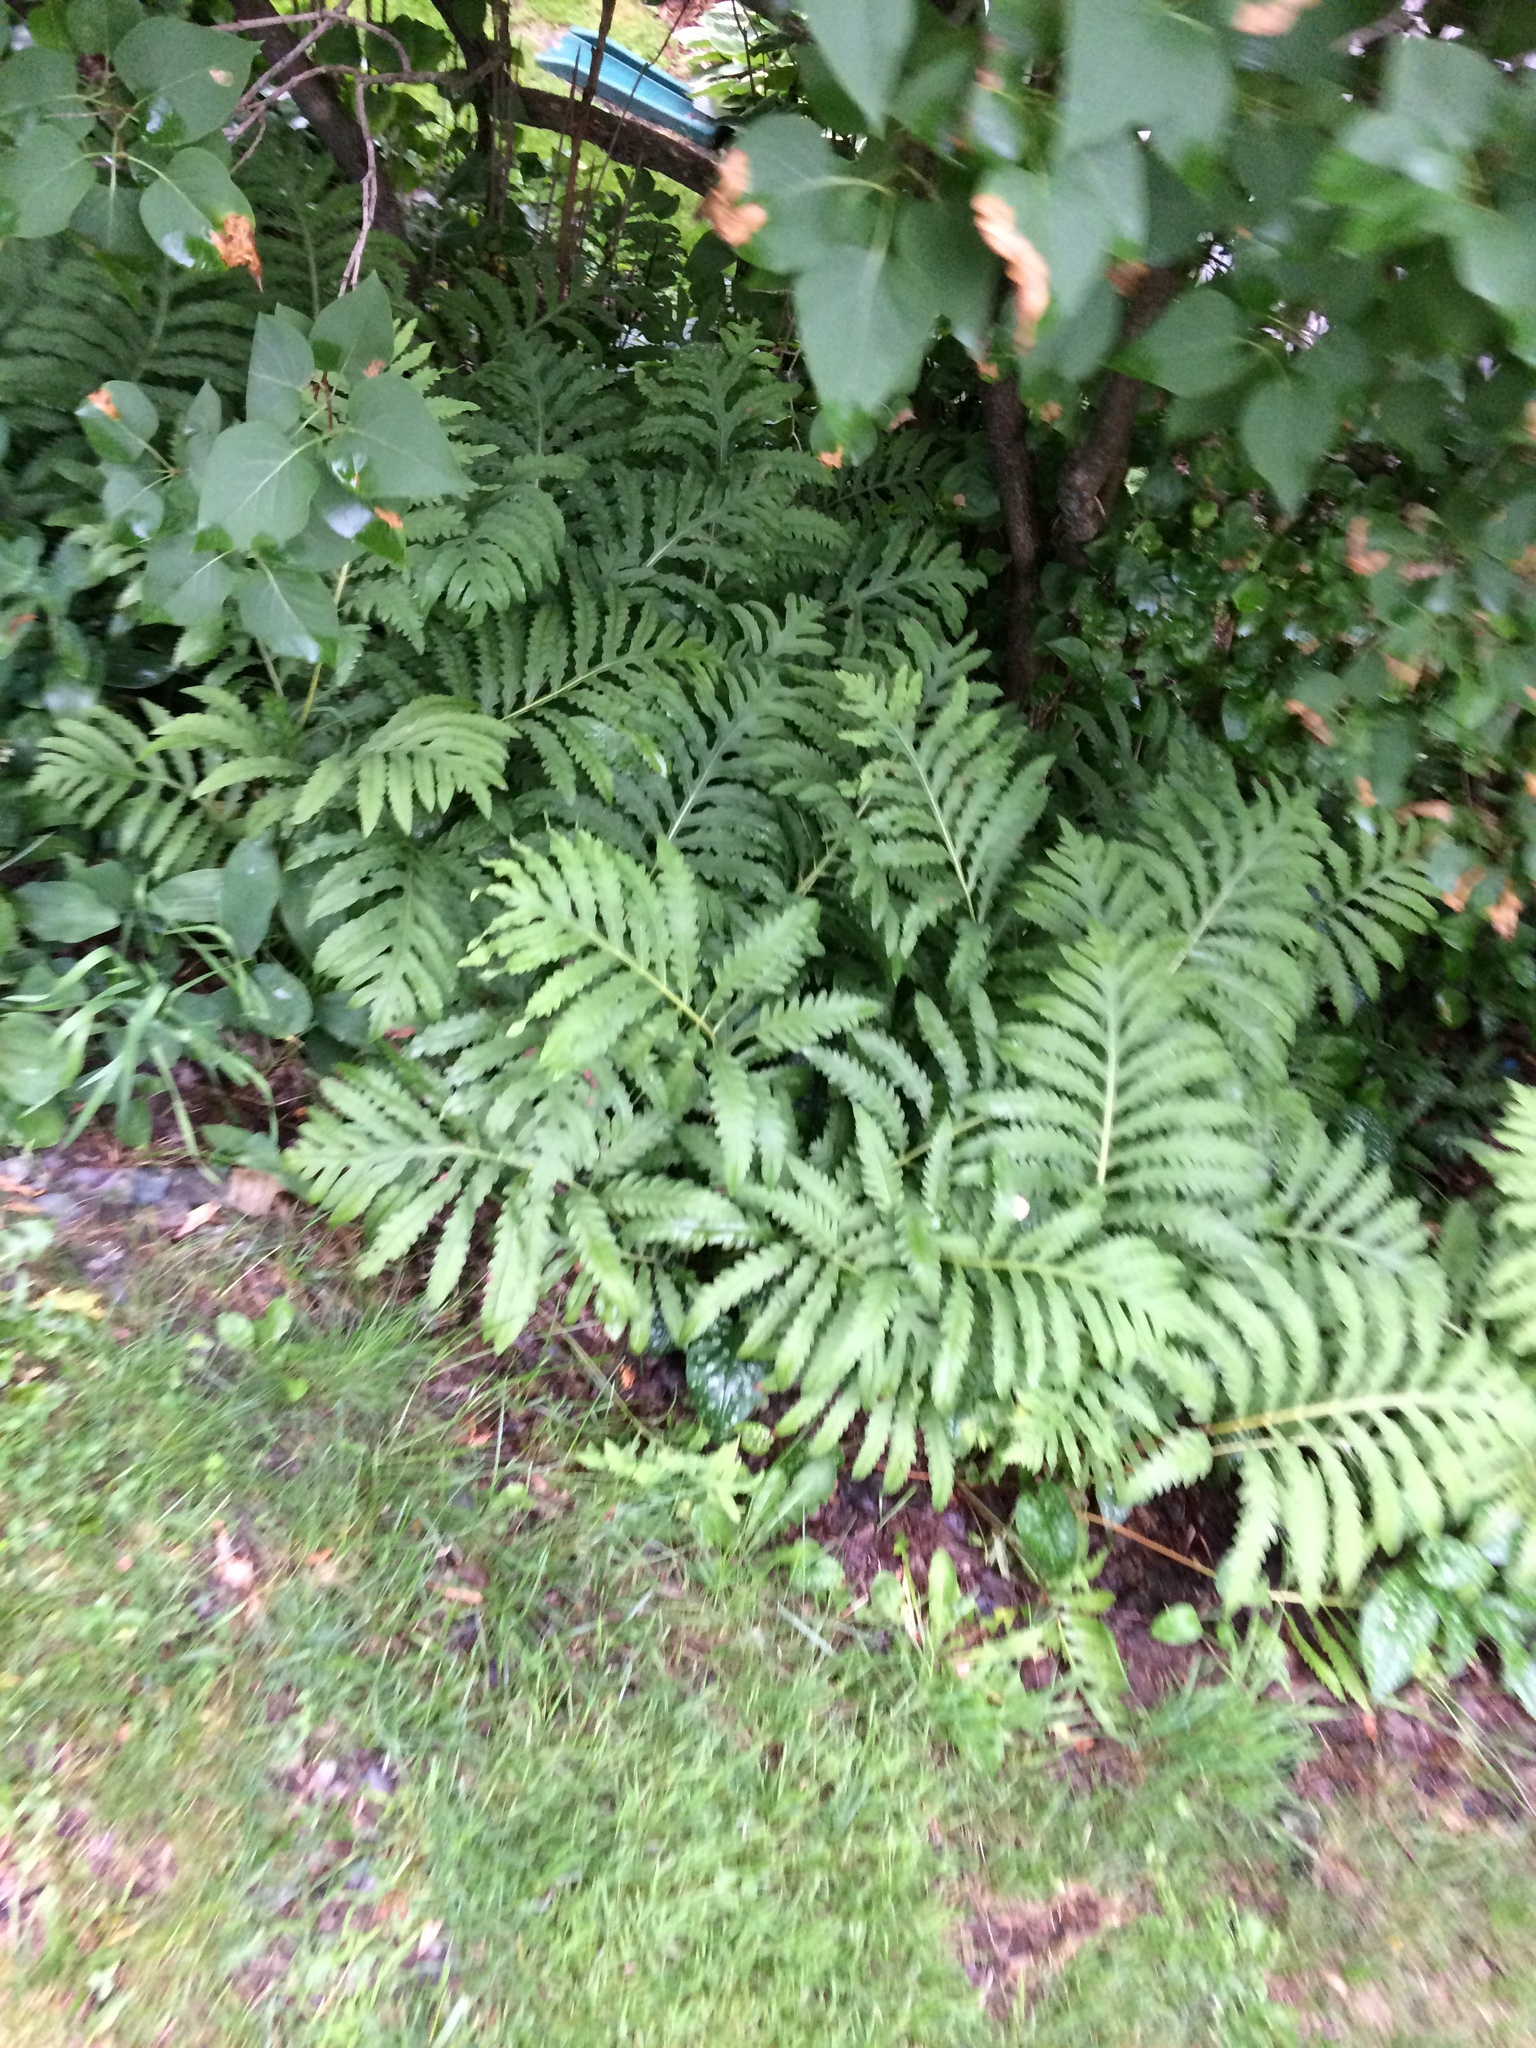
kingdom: Plantae
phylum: Tracheophyta
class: Polypodiopsida
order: Polypodiales
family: Onocleaceae
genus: Onoclea
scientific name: Onoclea sensibilis
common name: Sensitive fern
